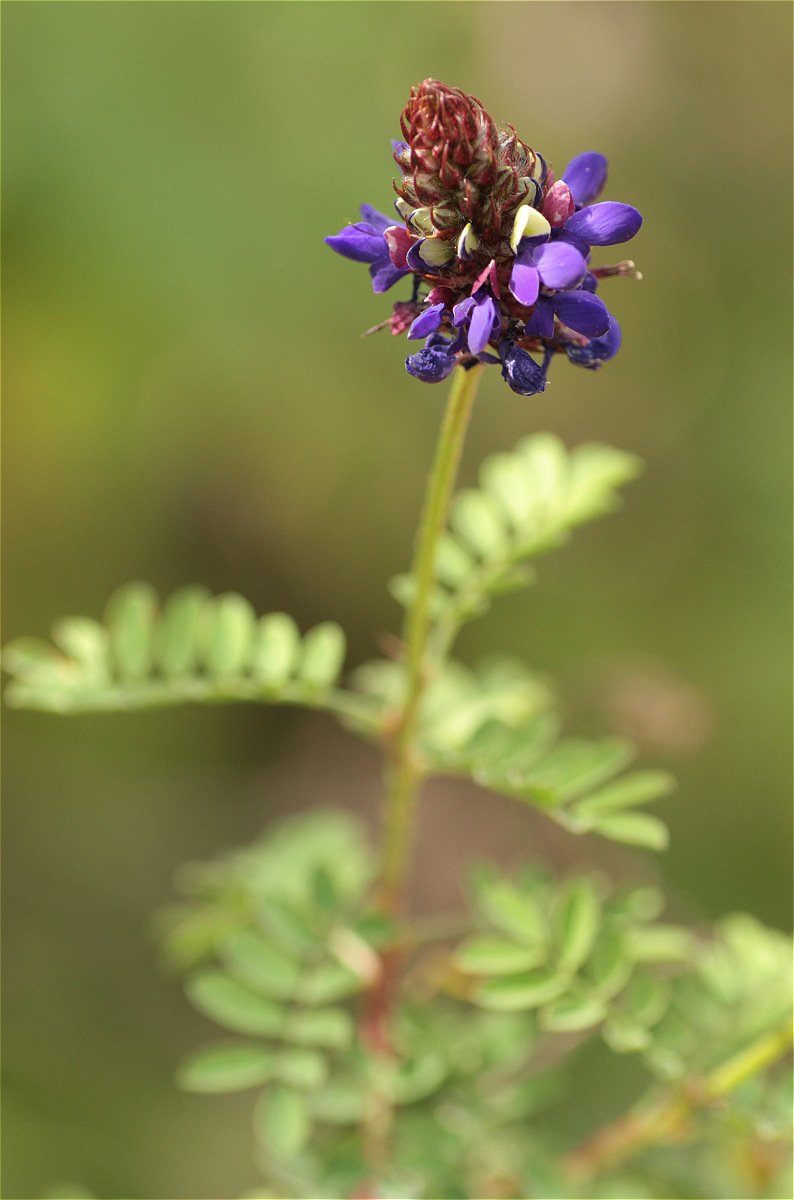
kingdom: Plantae
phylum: Tracheophyta
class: Magnoliopsida
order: Fabales
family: Fabaceae
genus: Dalea
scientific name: Dalea coerulea
